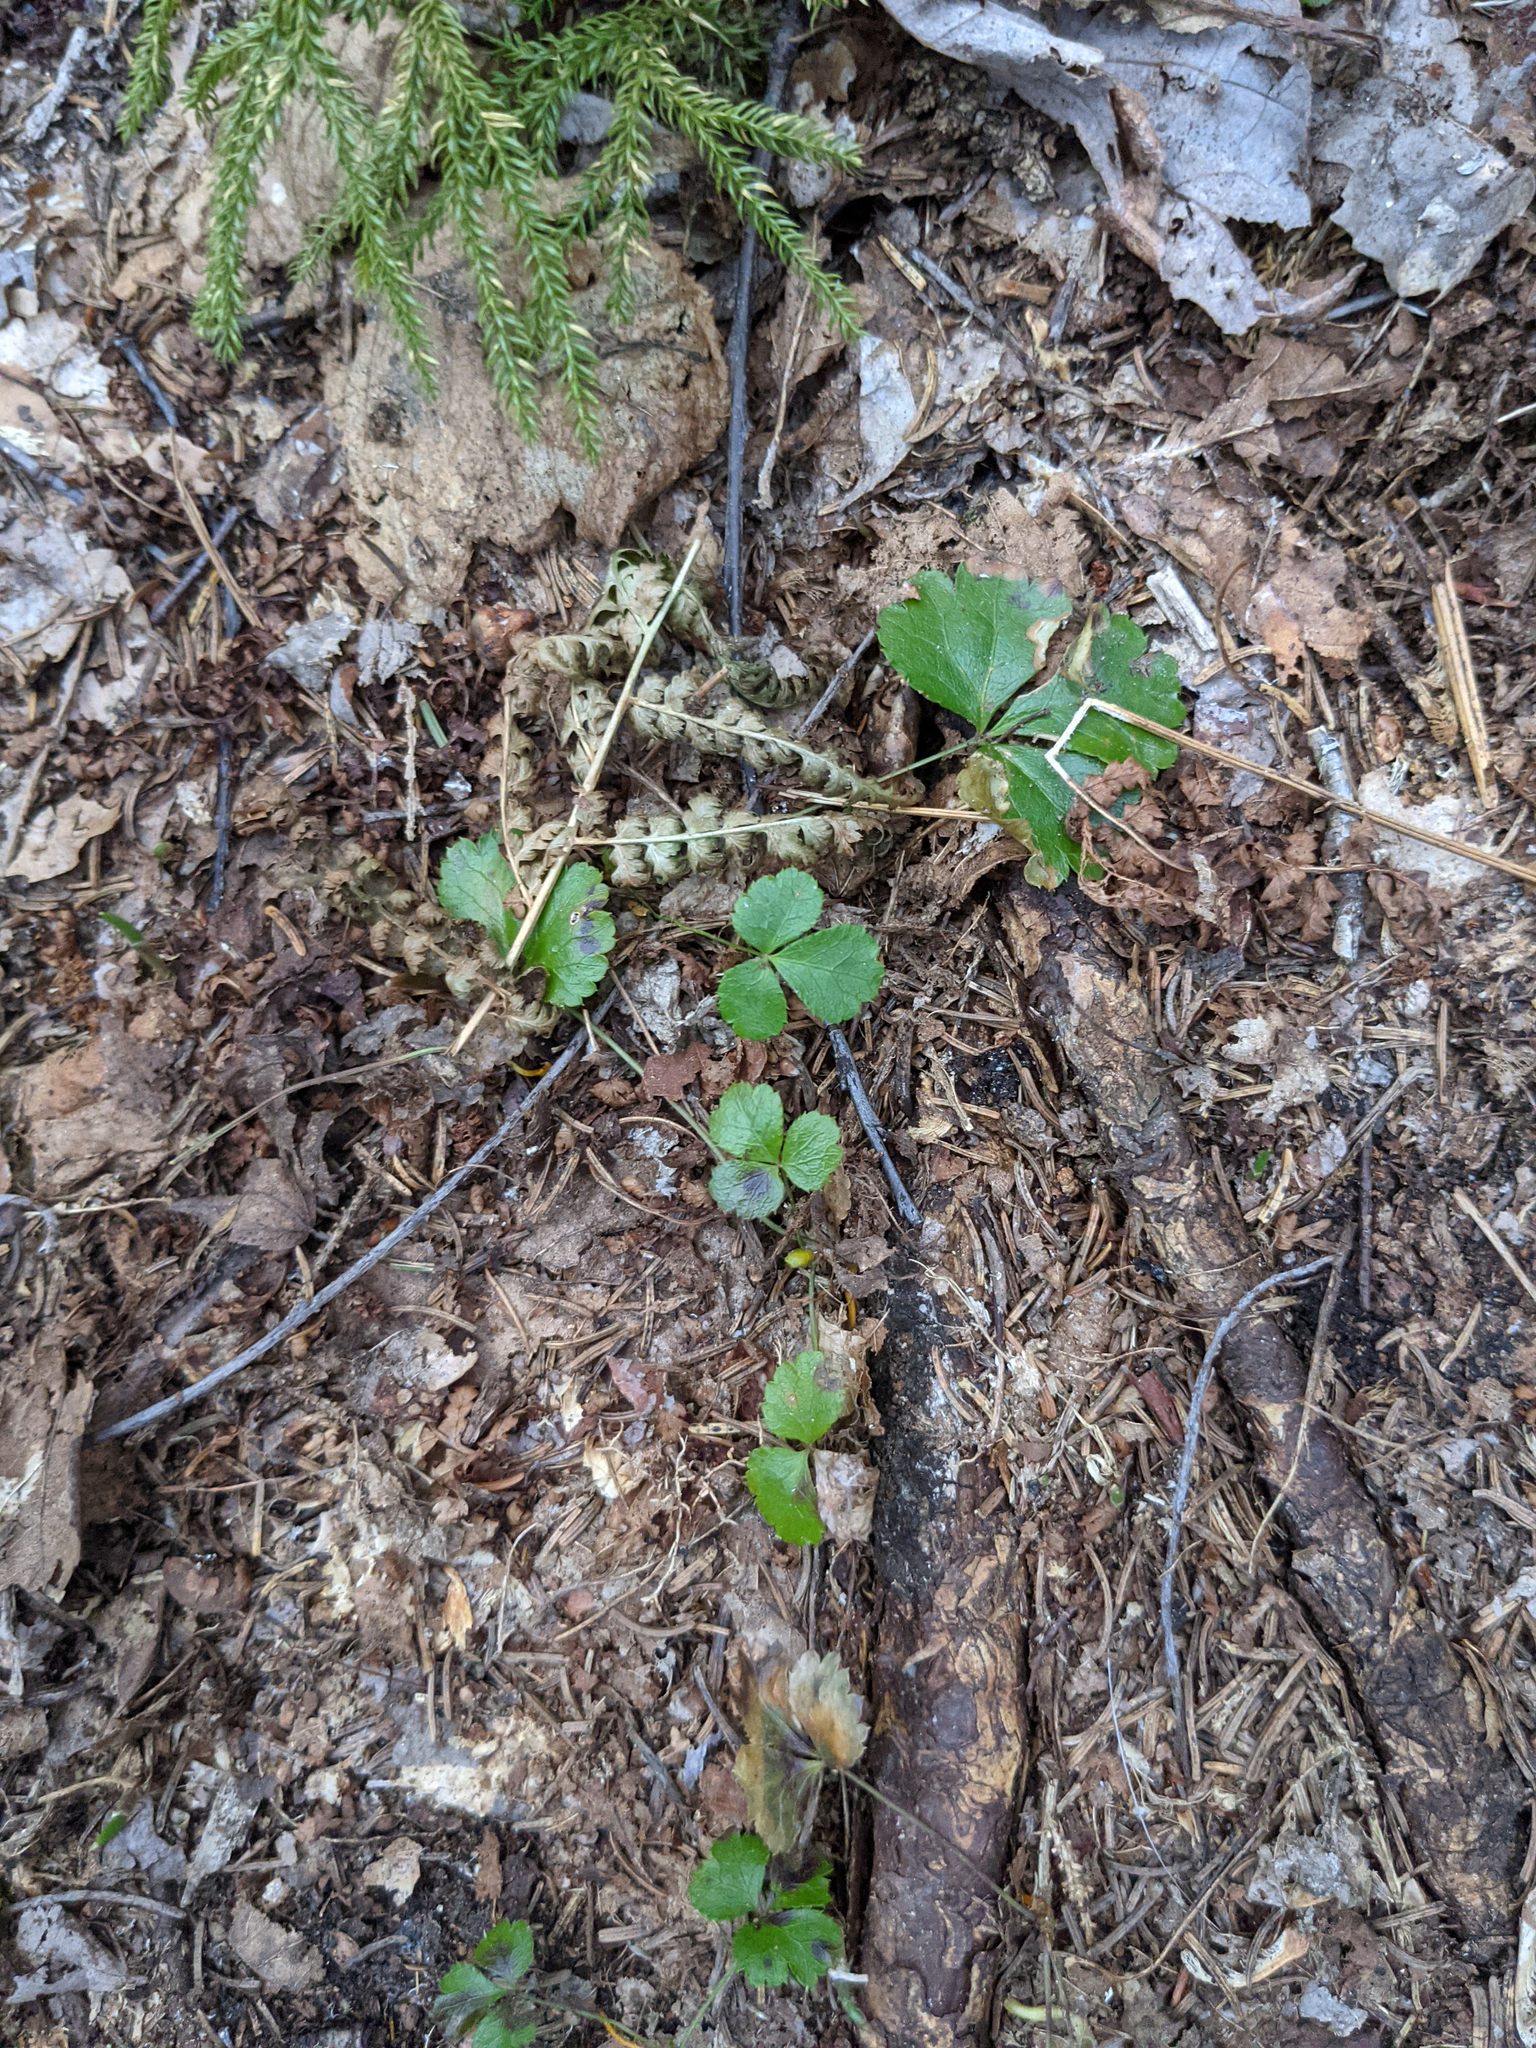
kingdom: Plantae
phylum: Tracheophyta
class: Magnoliopsida
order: Ranunculales
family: Ranunculaceae
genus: Coptis
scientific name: Coptis trifolia
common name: Canker-root
